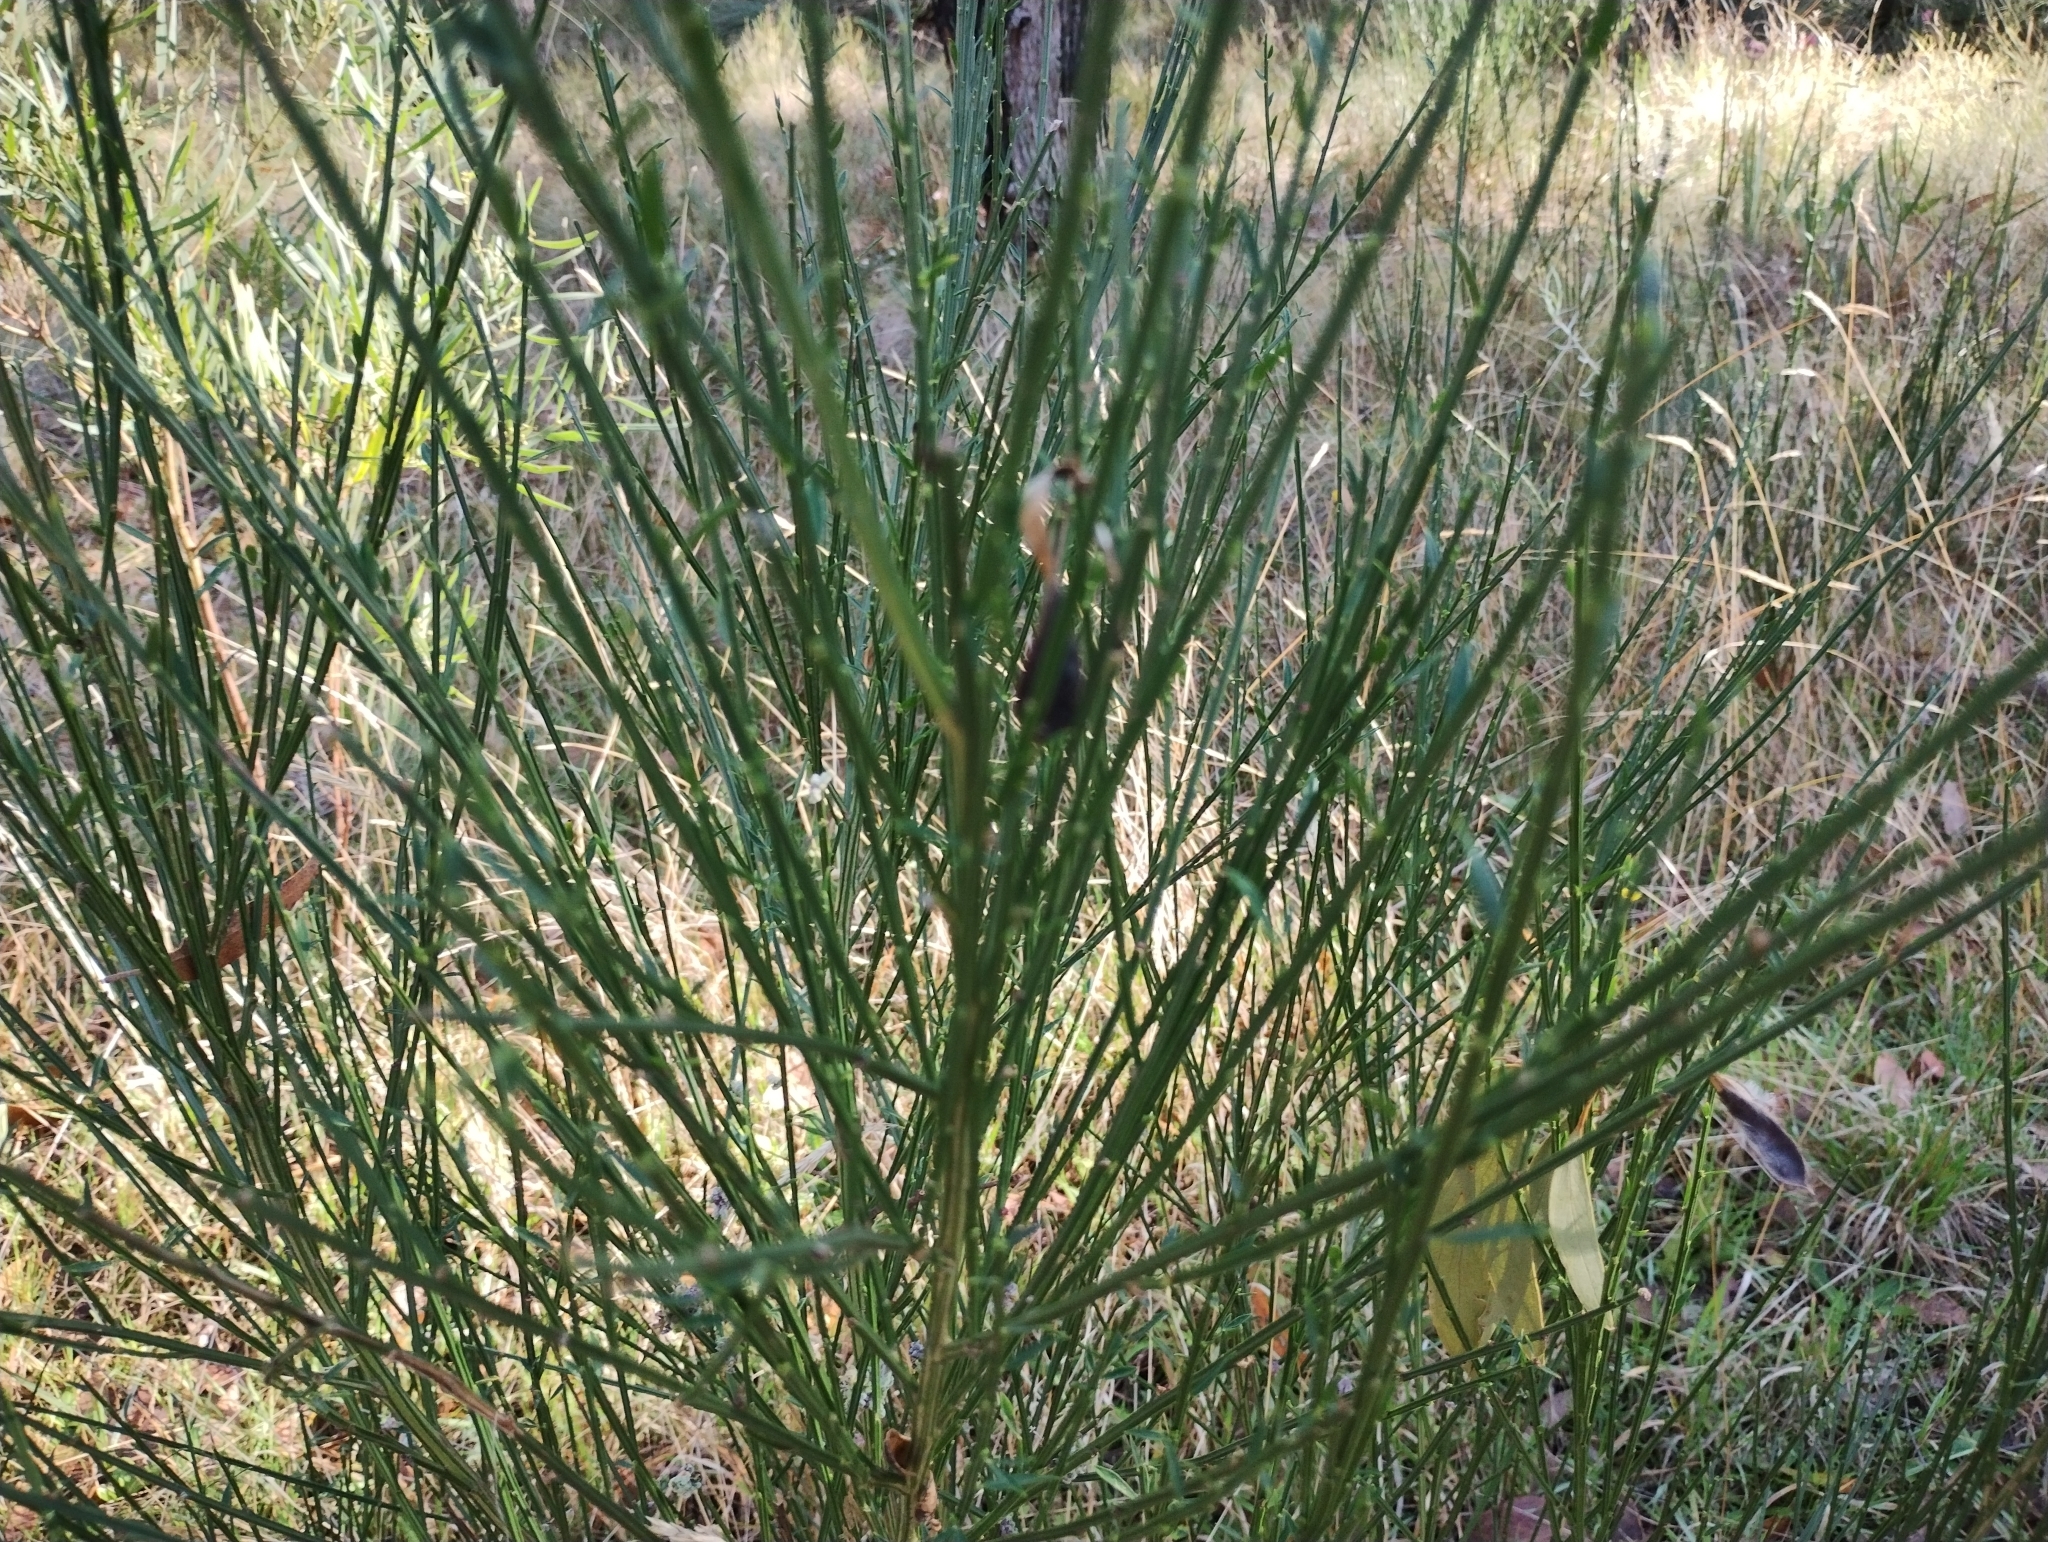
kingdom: Plantae
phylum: Tracheophyta
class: Magnoliopsida
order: Fabales
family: Fabaceae
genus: Cytisus
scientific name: Cytisus scoparius
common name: Scotch broom
